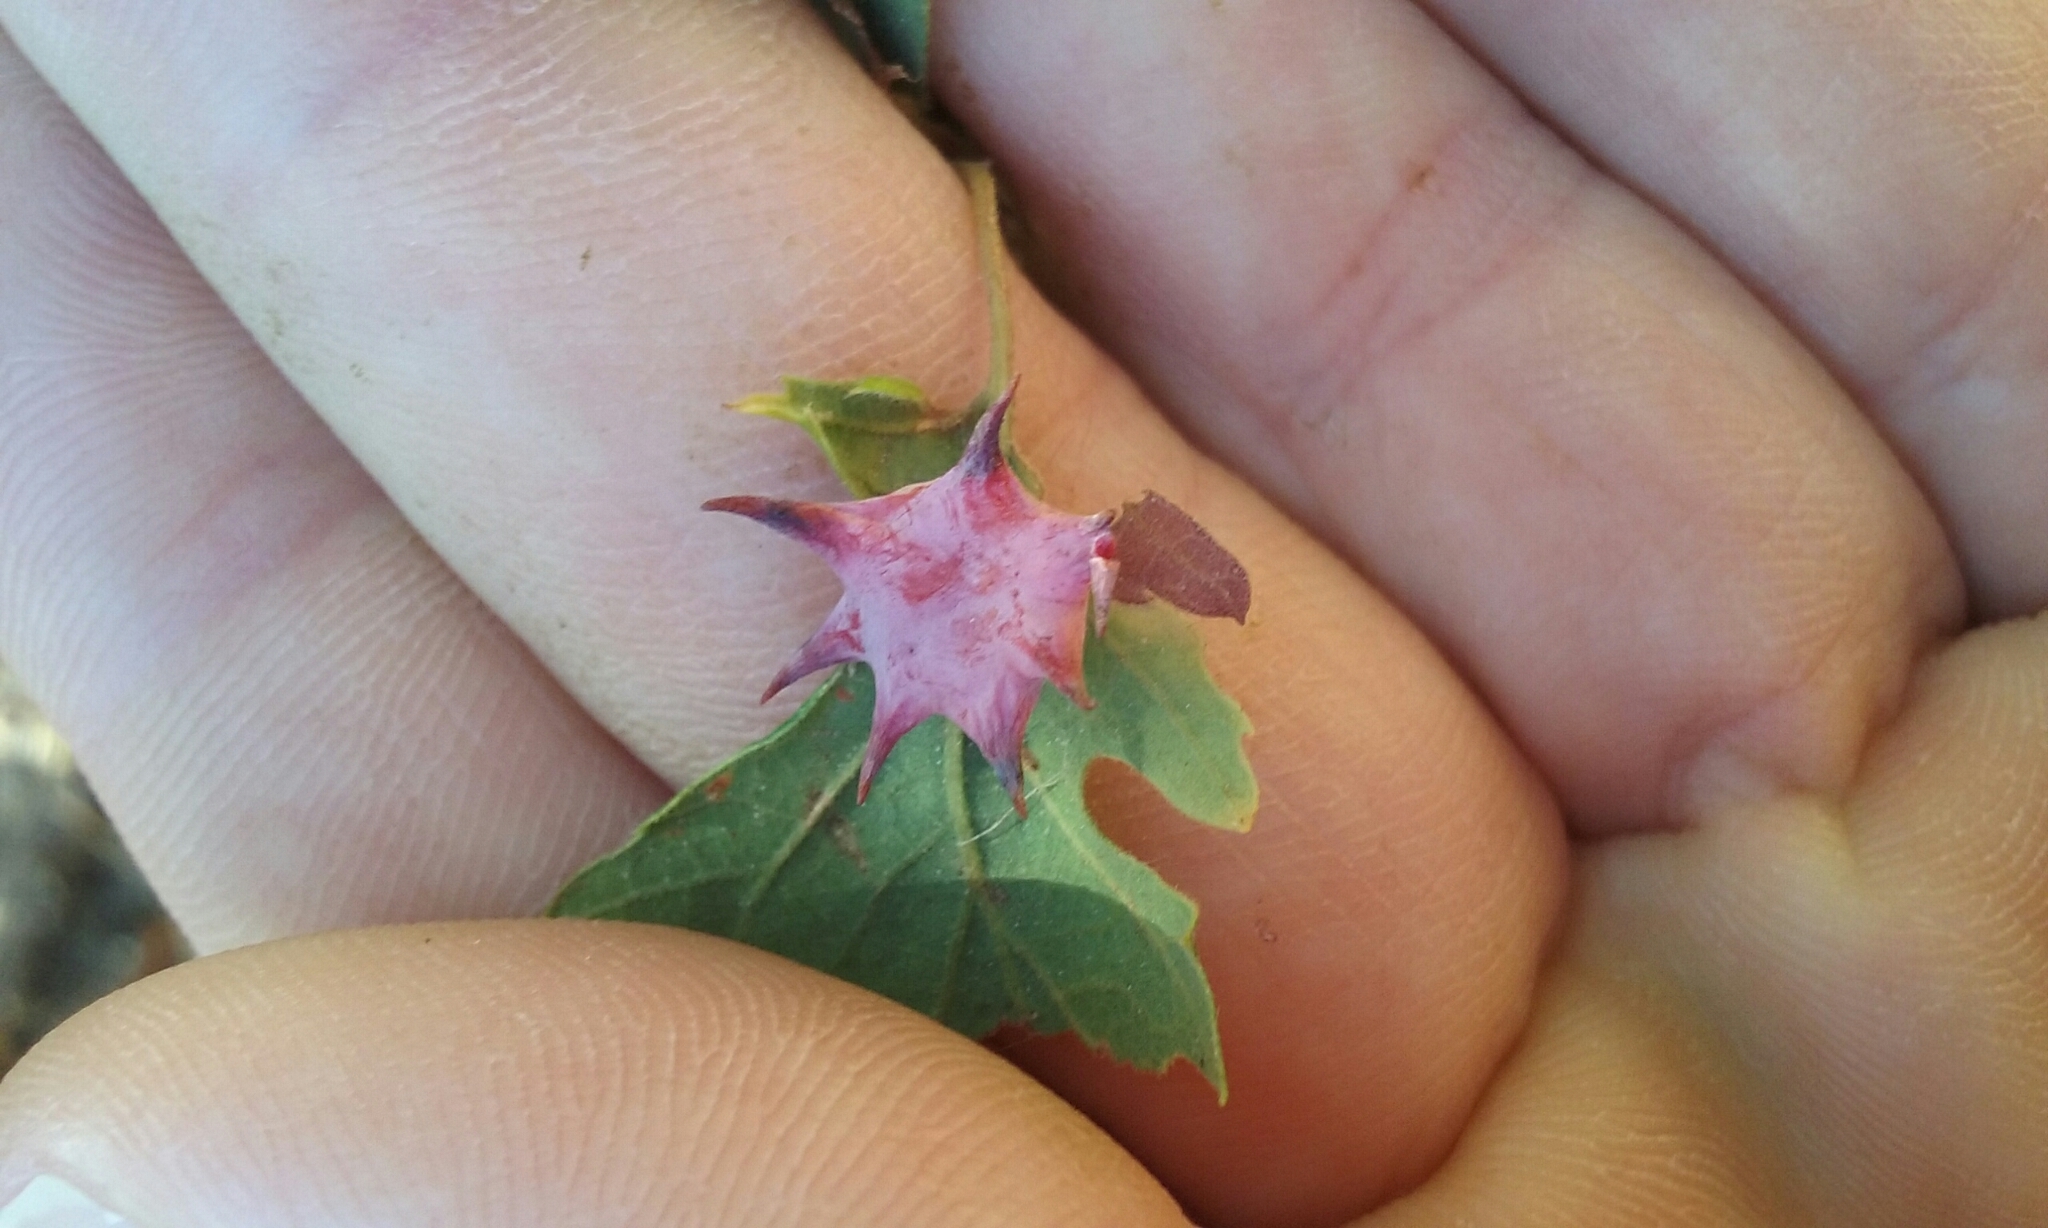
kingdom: Animalia
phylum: Arthropoda
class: Insecta
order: Hymenoptera
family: Cynipidae
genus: Cynips
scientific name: Cynips douglasi
